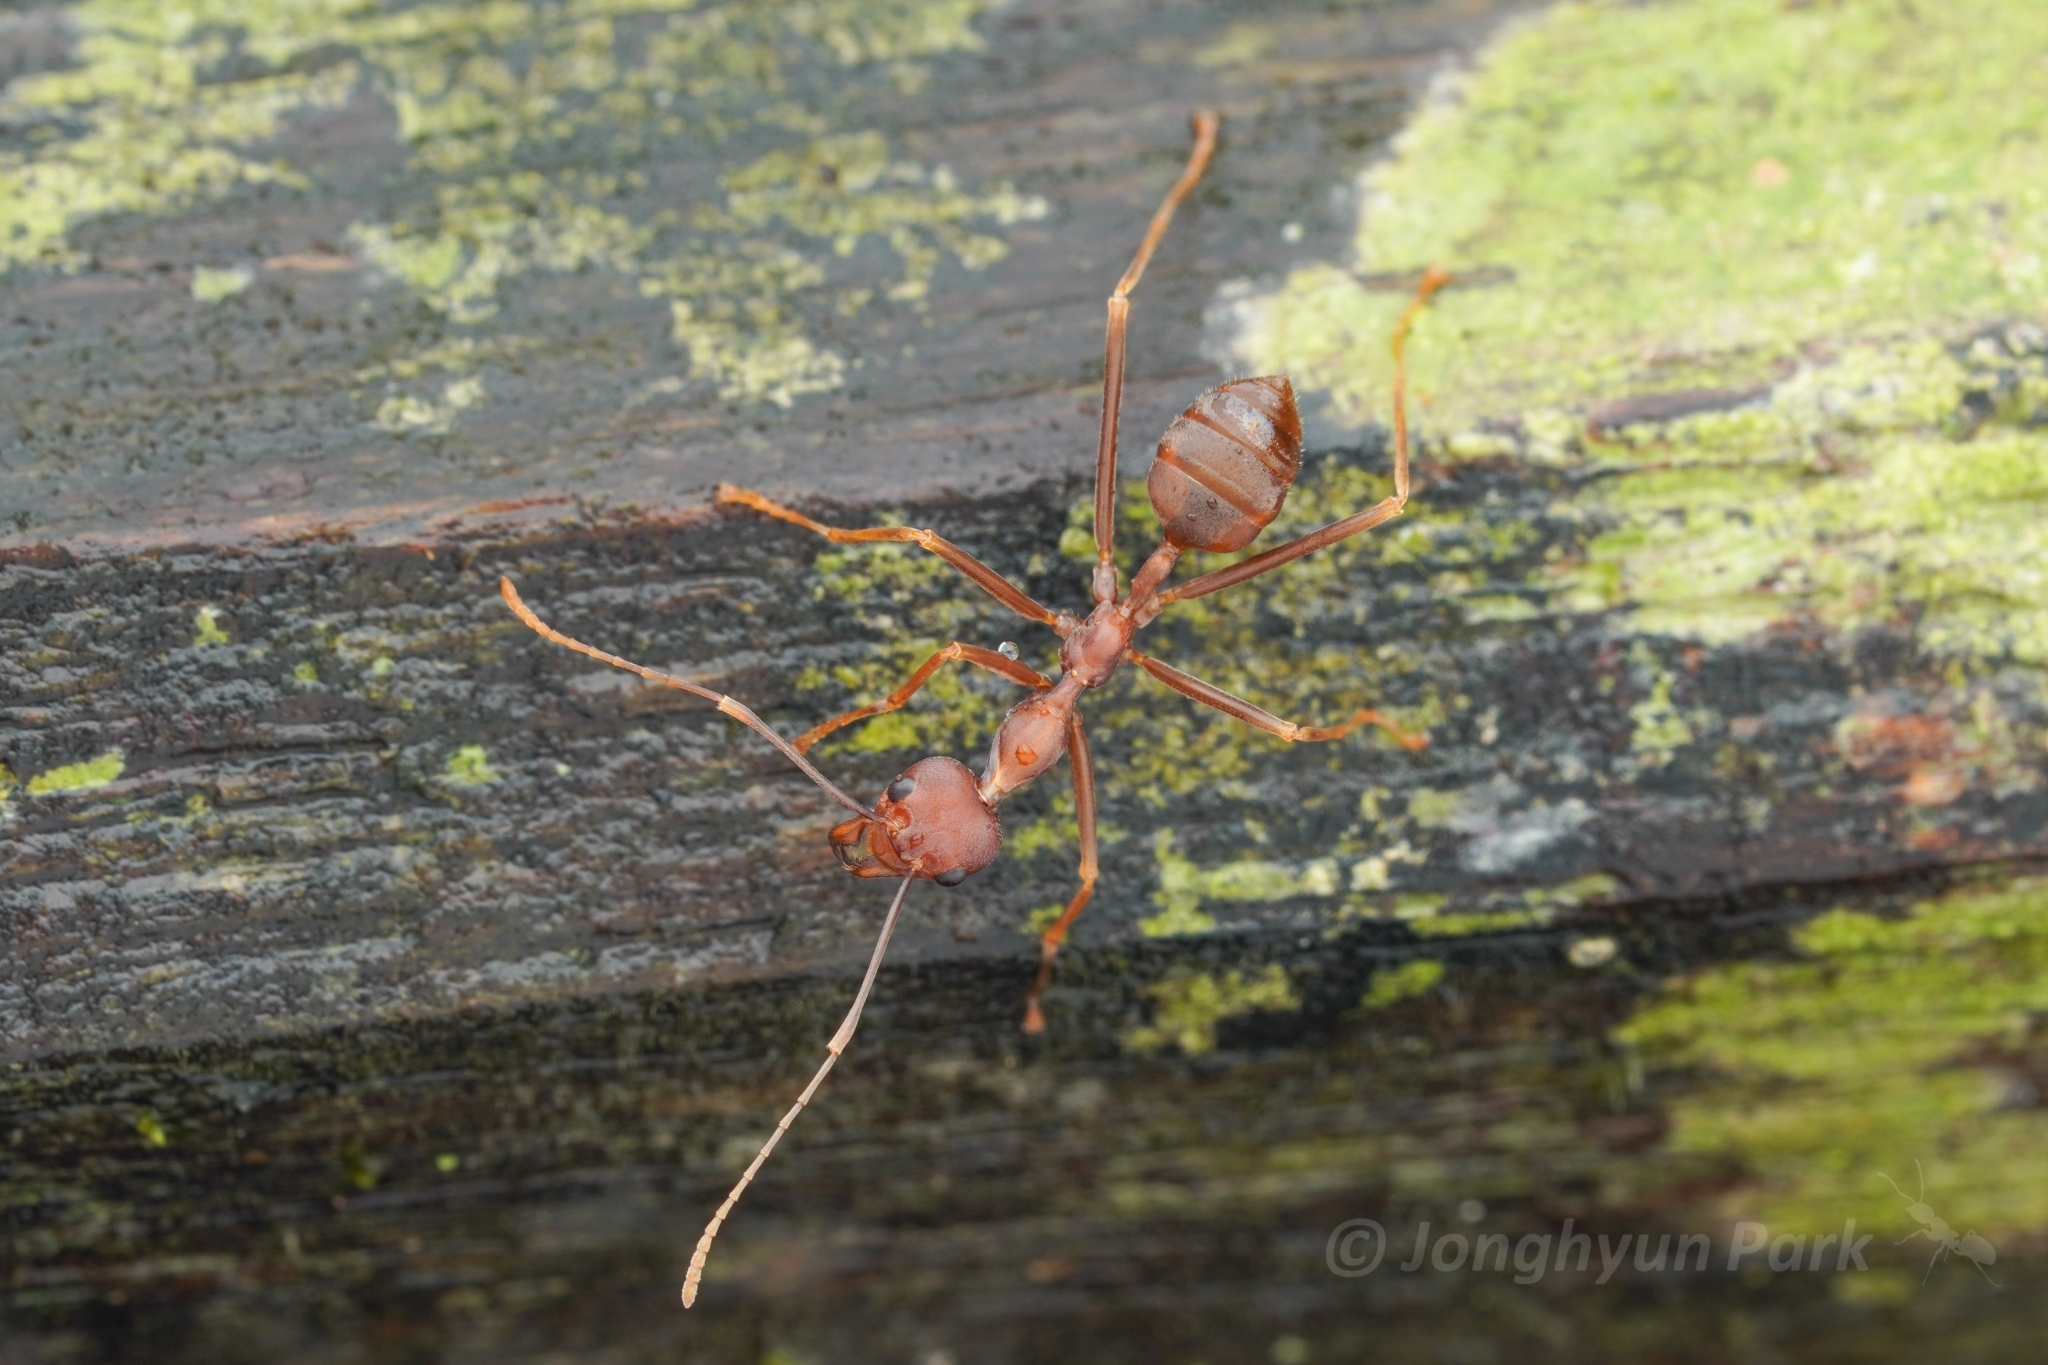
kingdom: Animalia
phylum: Arthropoda
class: Insecta
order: Hymenoptera
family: Formicidae
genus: Oecophylla
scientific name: Oecophylla smaragdina
